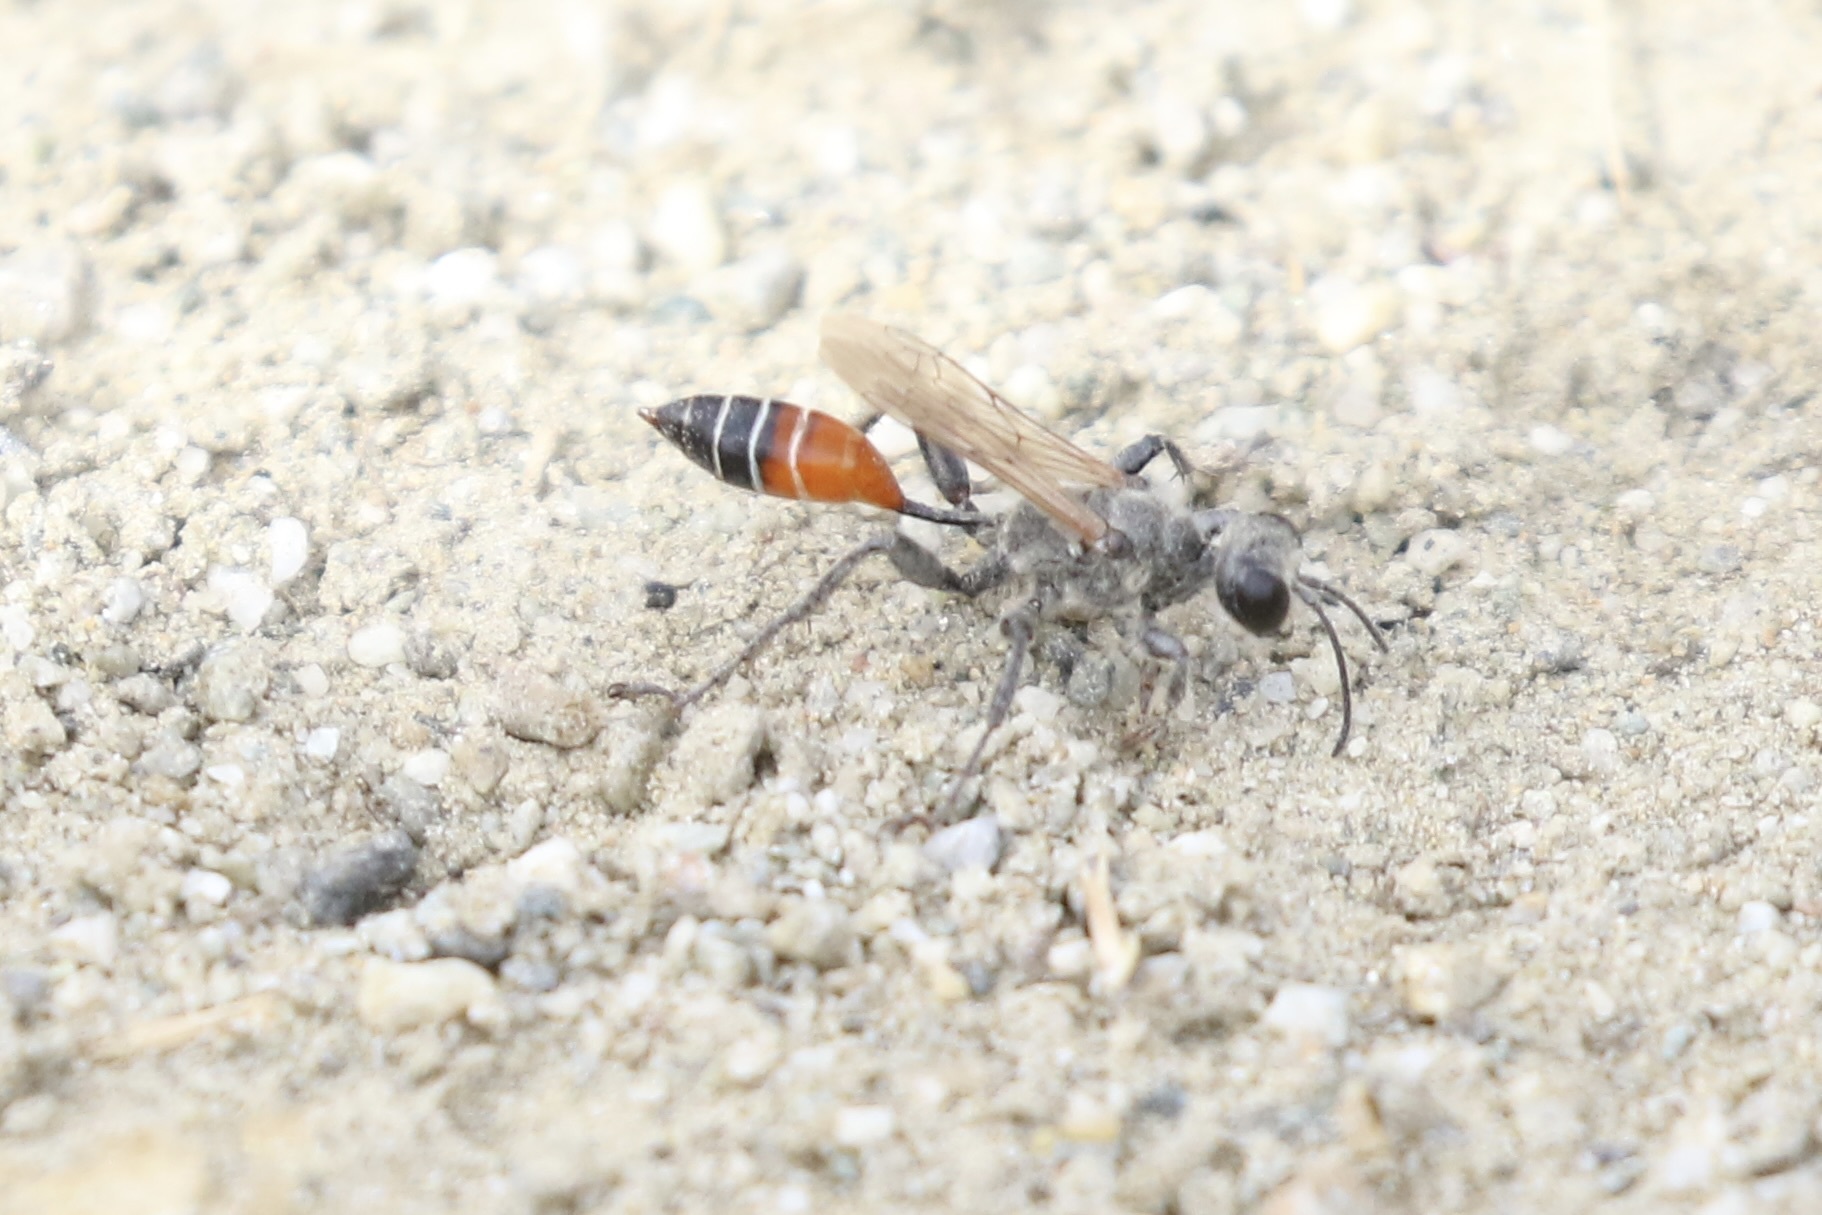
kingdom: Animalia
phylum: Arthropoda
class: Insecta
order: Hymenoptera
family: Sphecidae
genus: Prionyx
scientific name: Prionyx kirbii
